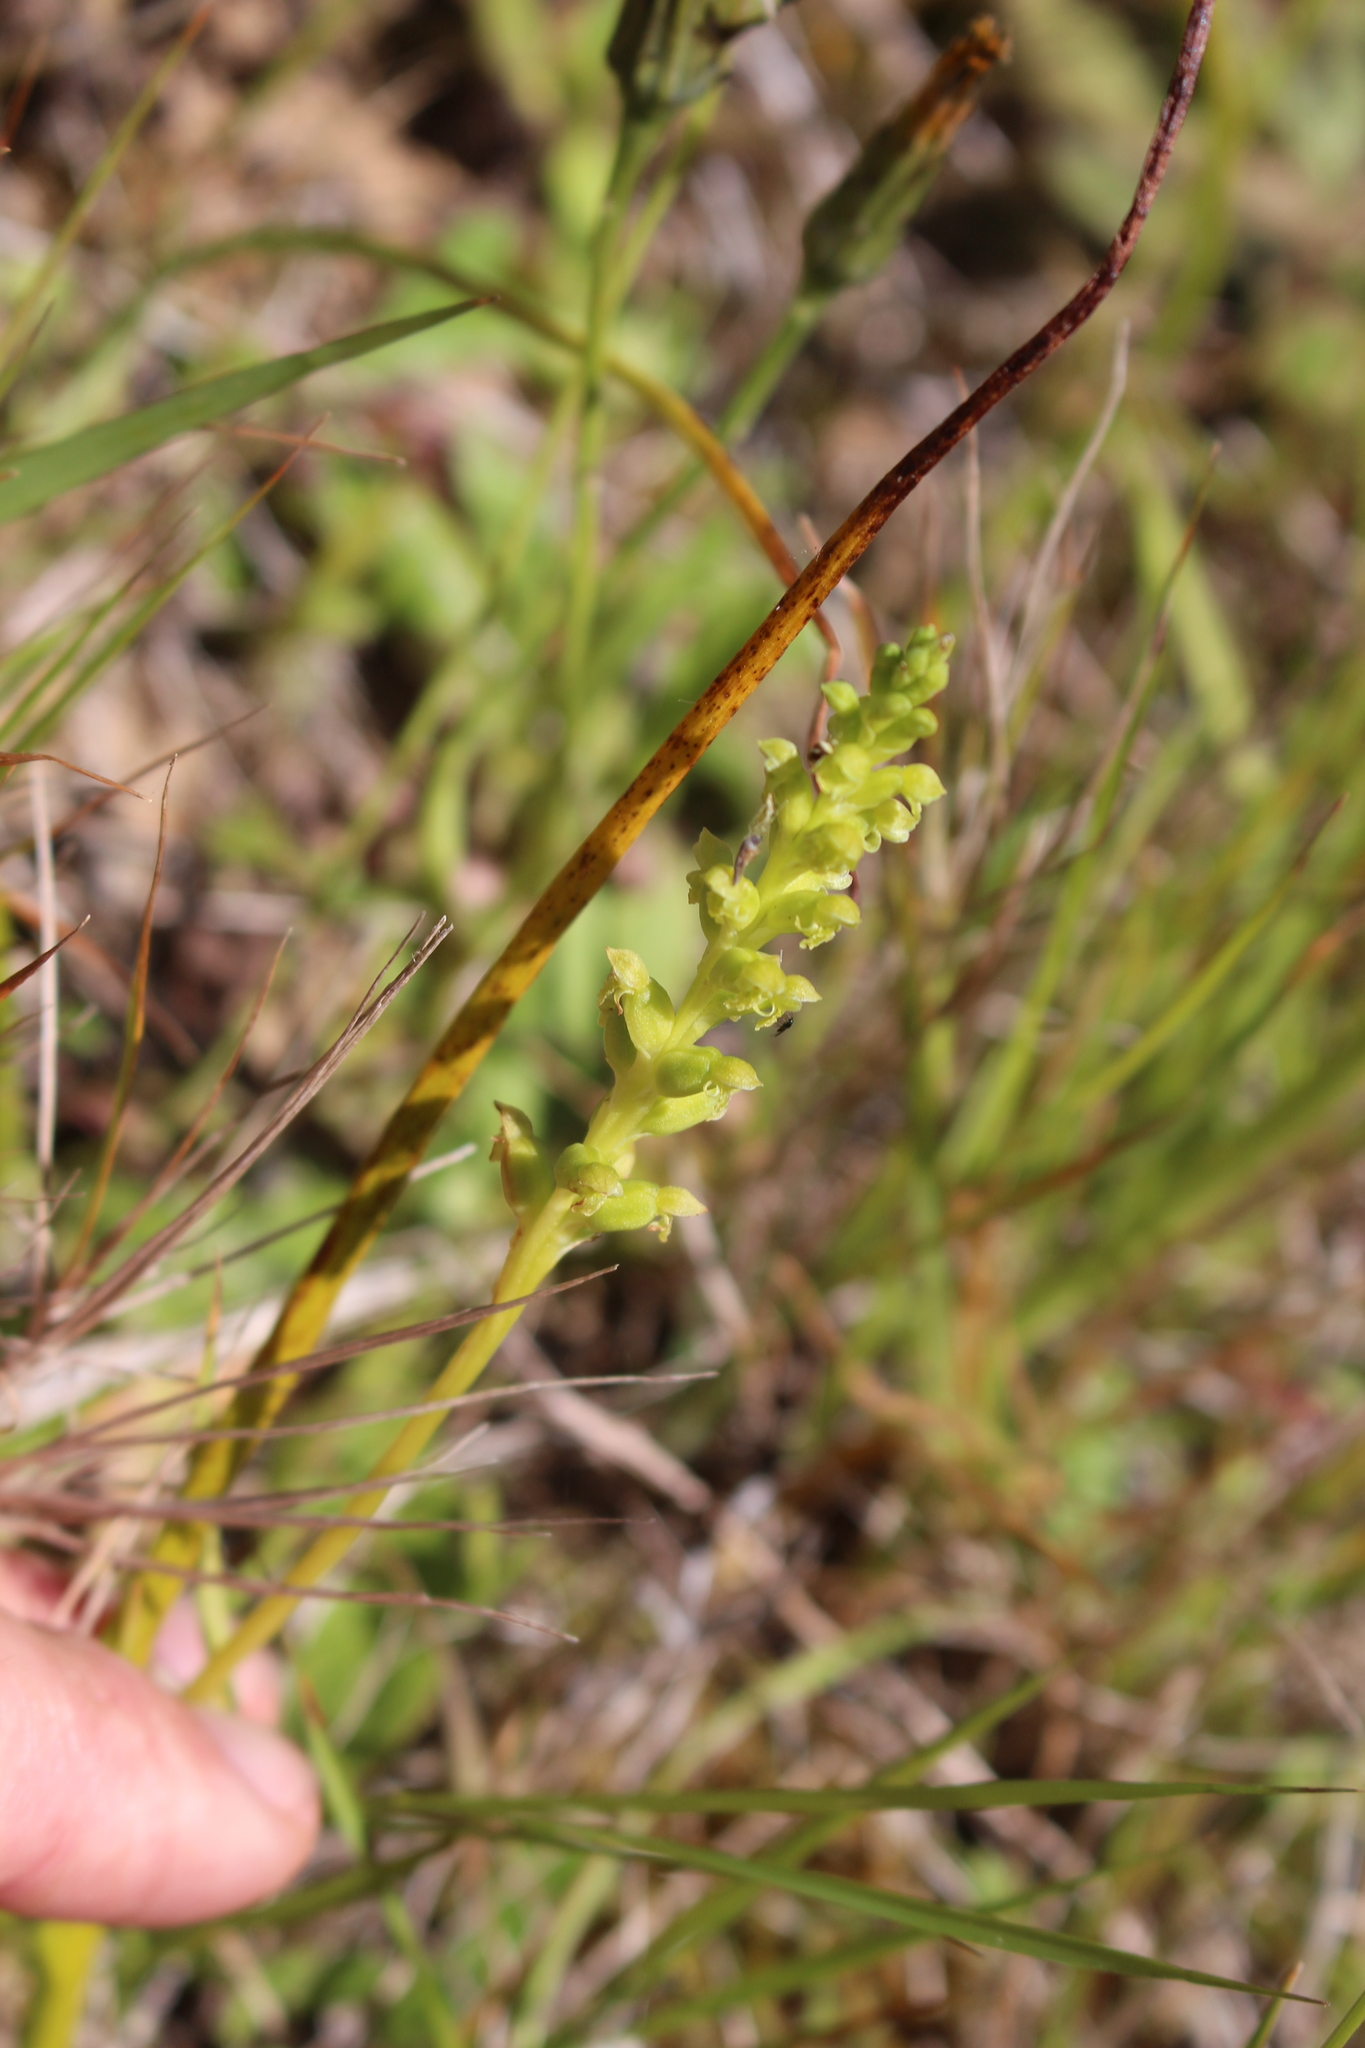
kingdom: Plantae
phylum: Tracheophyta
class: Liliopsida
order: Asparagales
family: Orchidaceae
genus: Microtis
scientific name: Microtis unifolia
